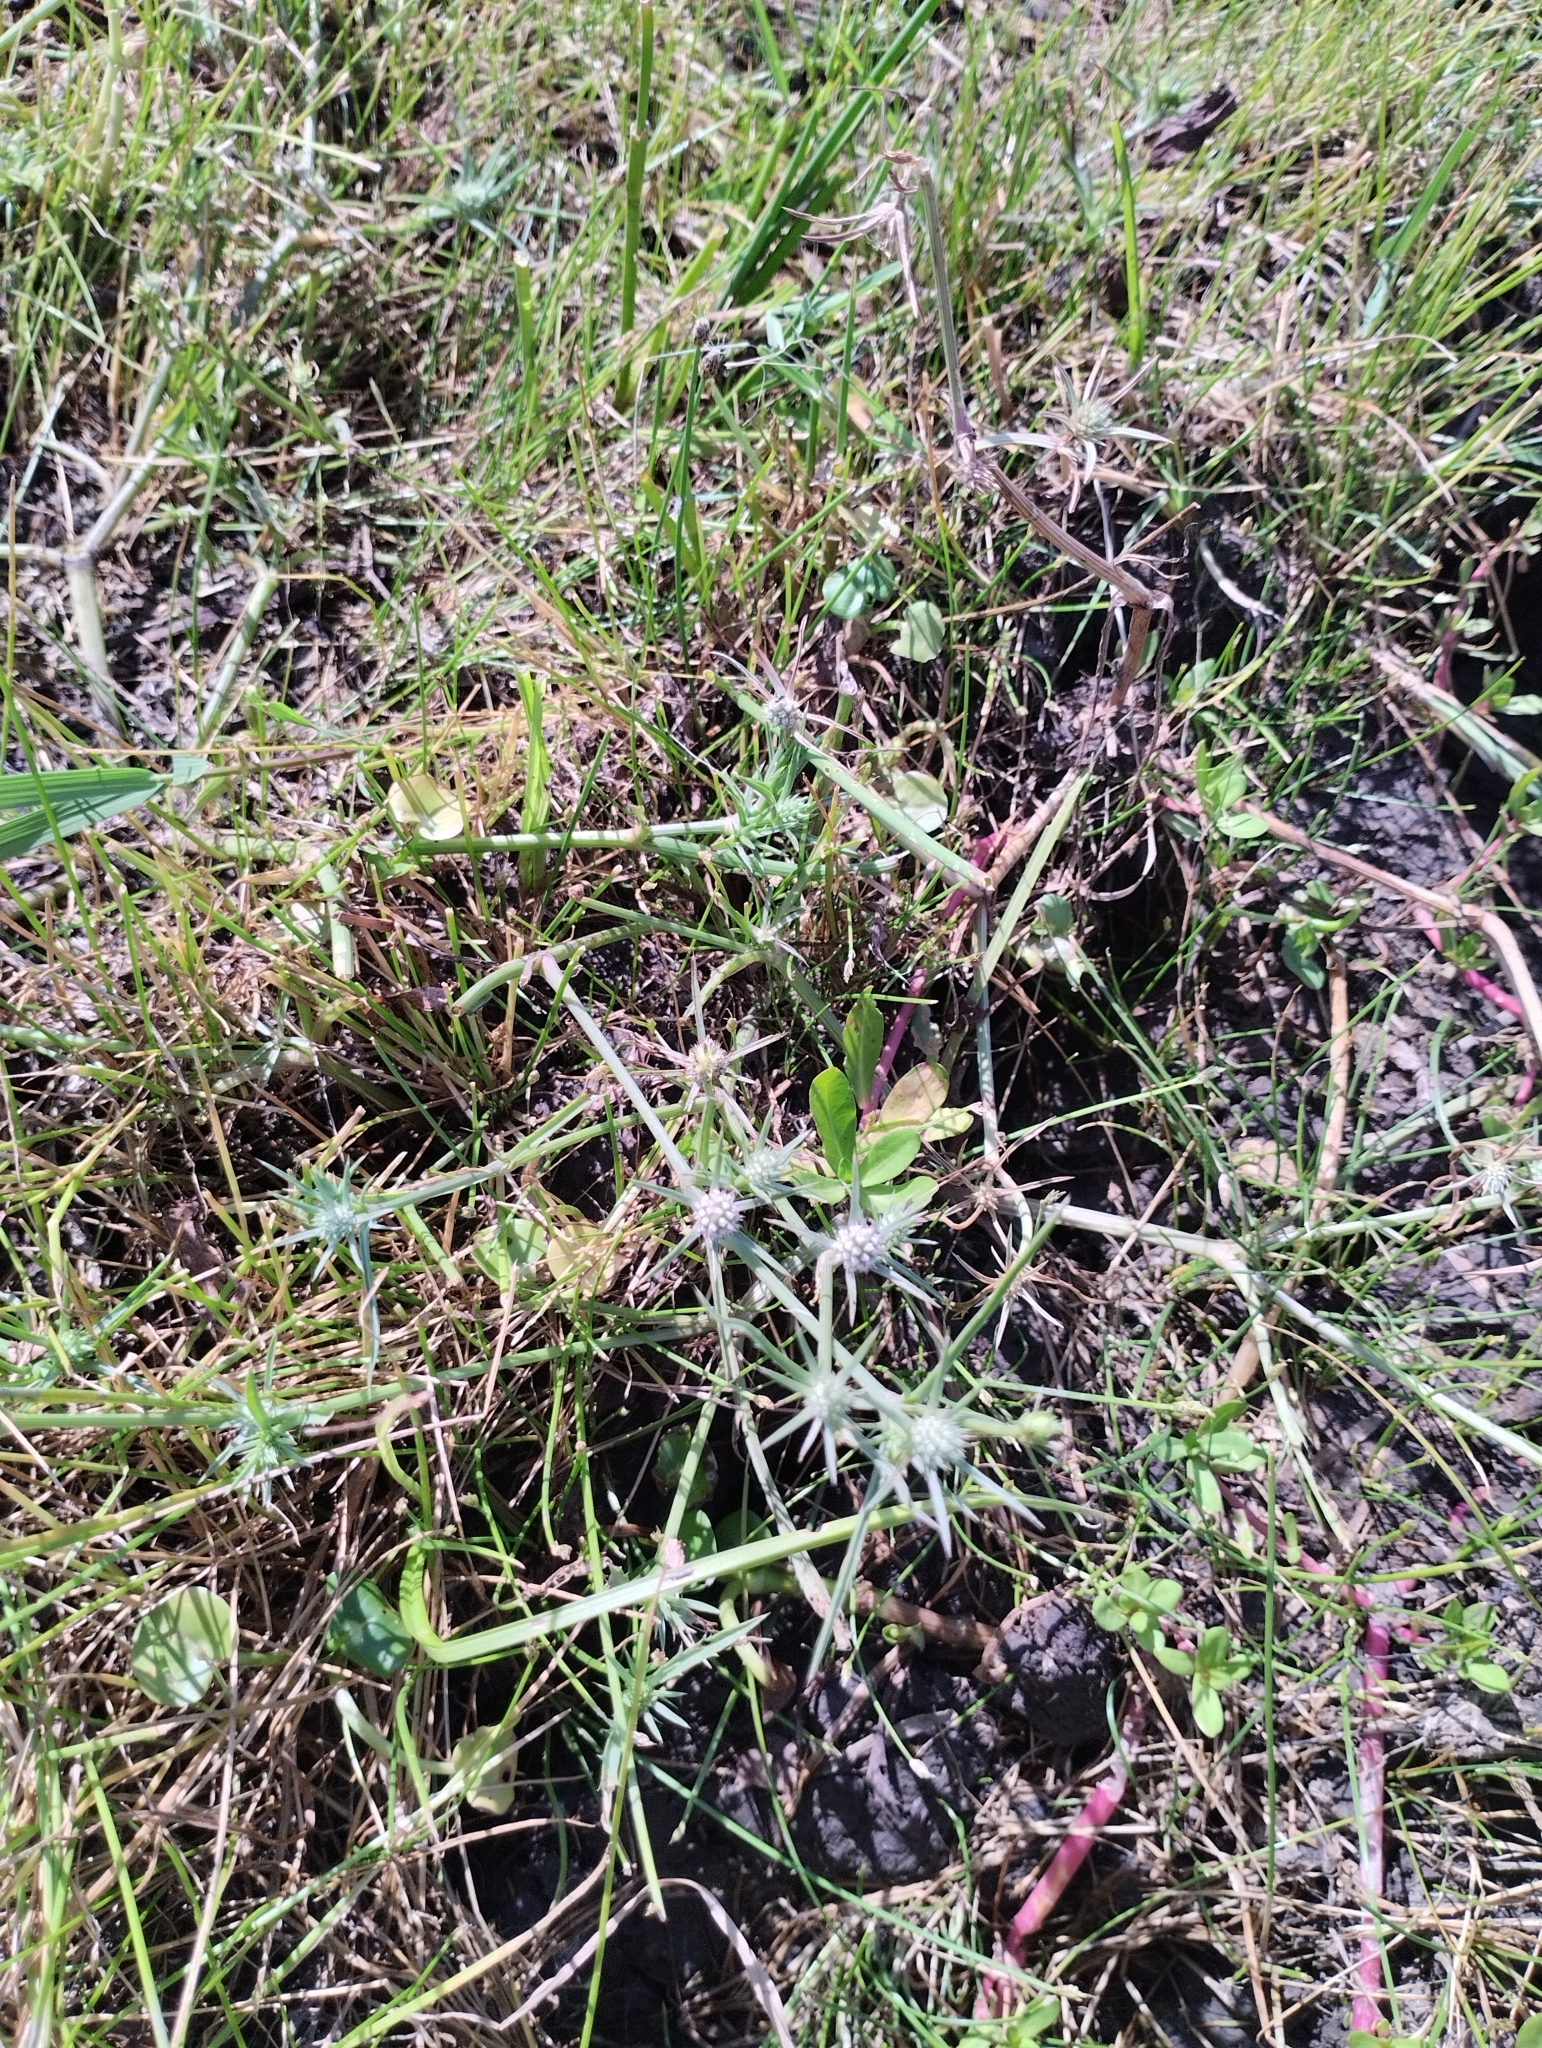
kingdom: Plantae
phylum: Tracheophyta
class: Magnoliopsida
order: Apiales
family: Apiaceae
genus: Eryngium
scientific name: Eryngium echinatum
